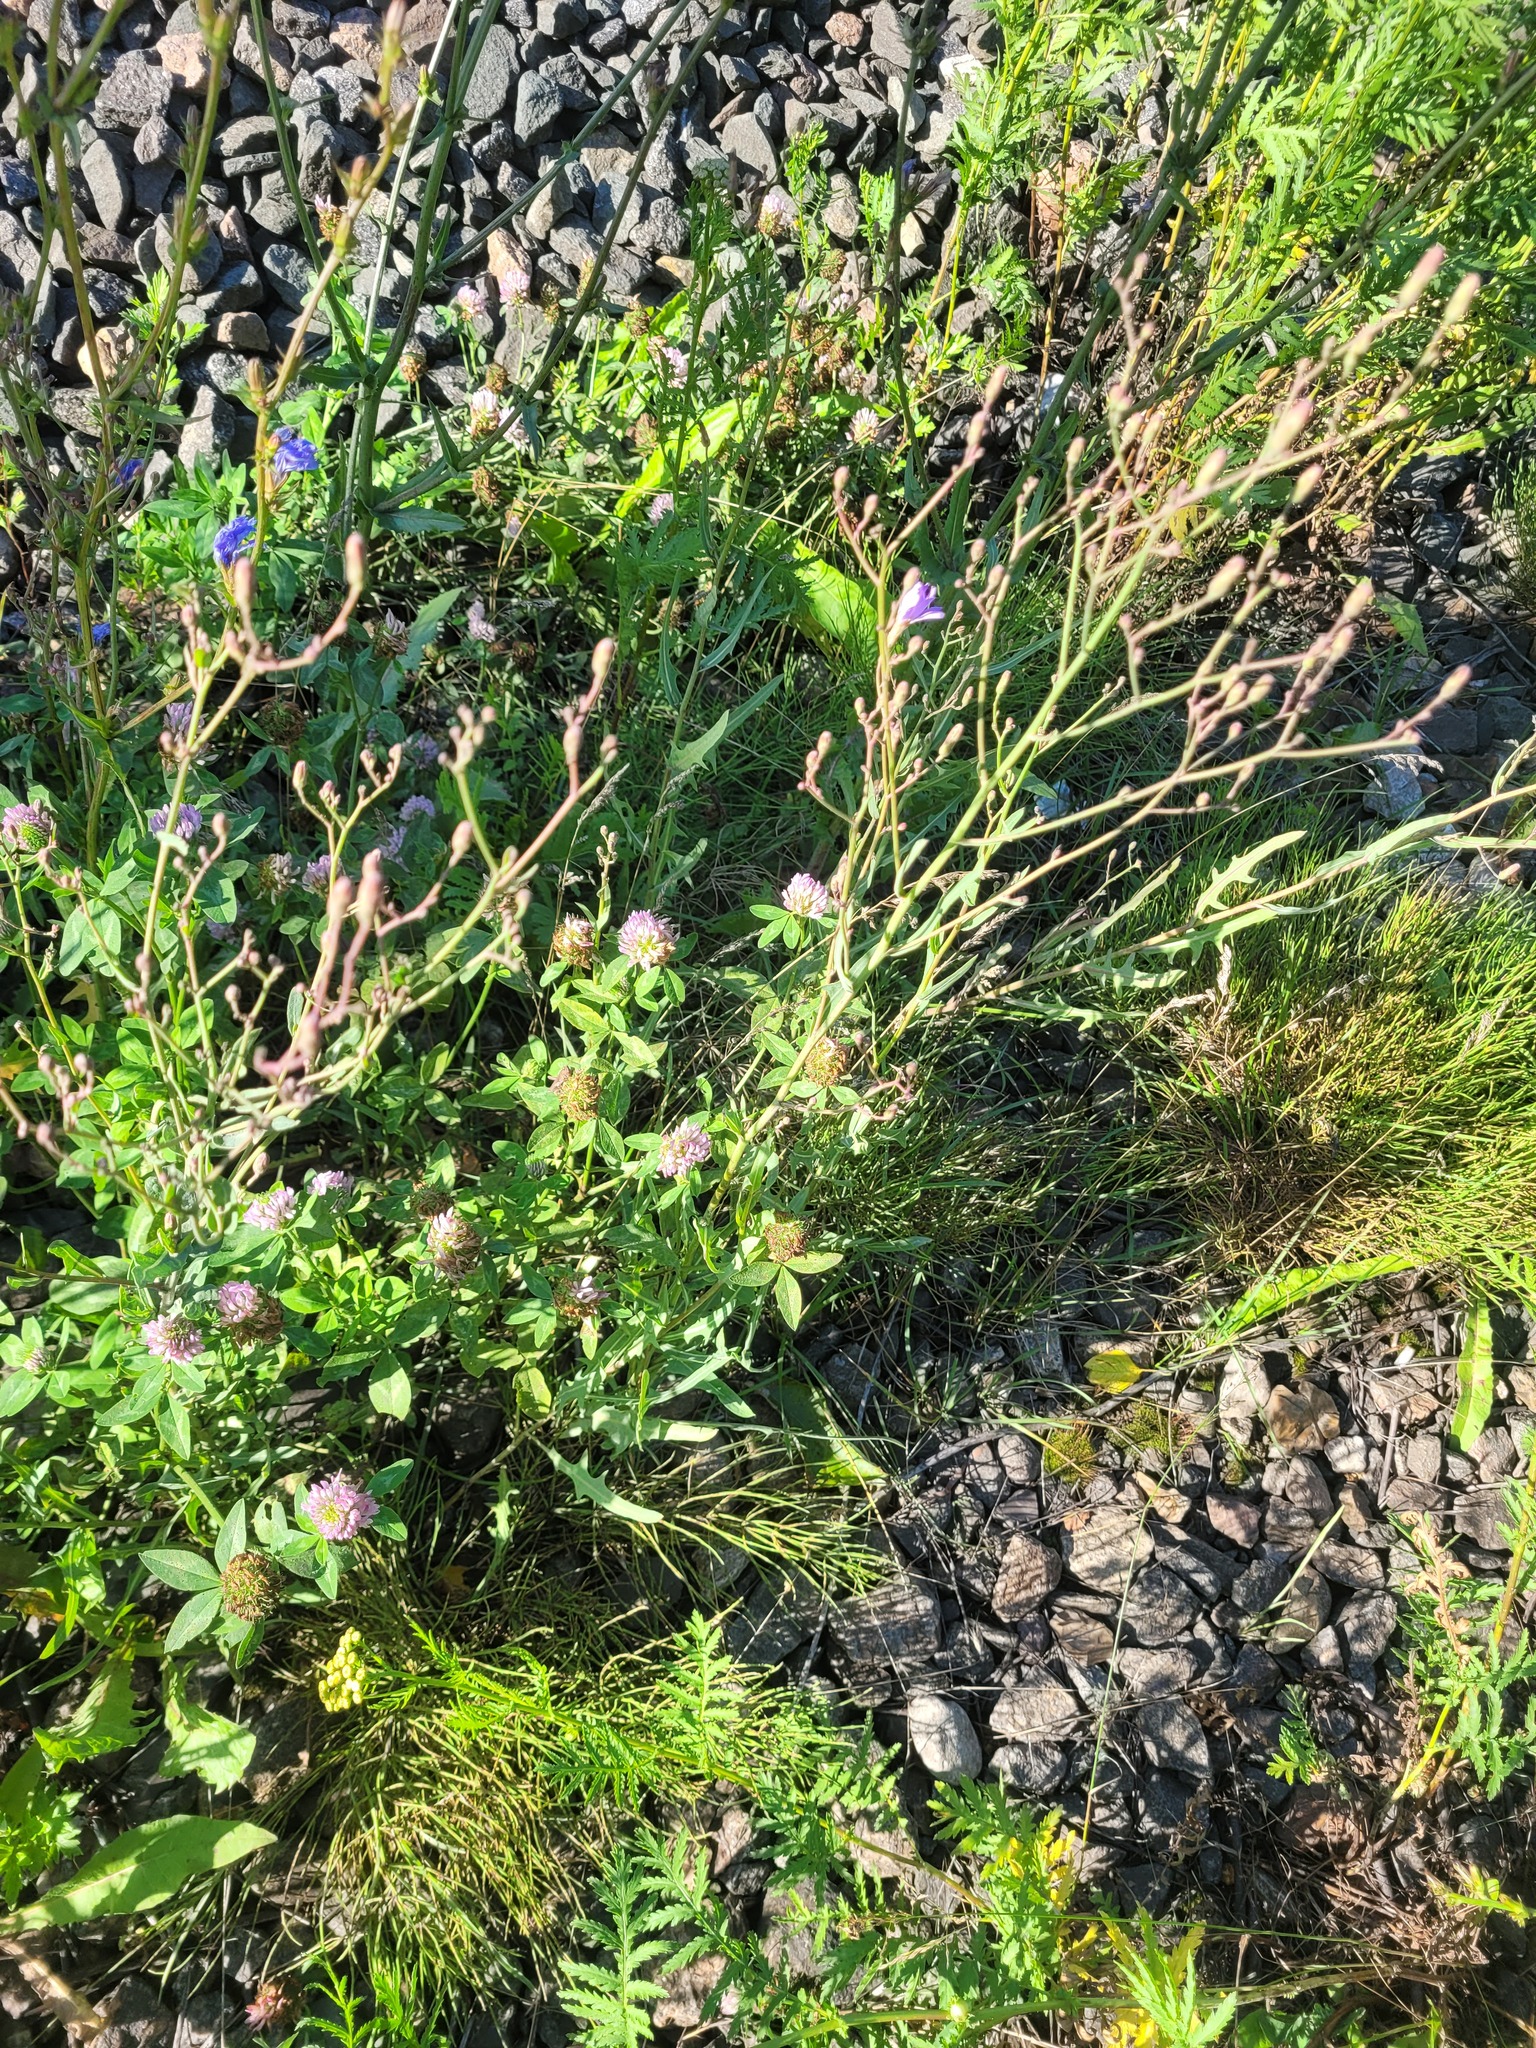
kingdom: Plantae
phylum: Tracheophyta
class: Magnoliopsida
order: Asterales
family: Asteraceae
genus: Lactuca
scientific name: Lactuca tatarica
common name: Blue lettuce
